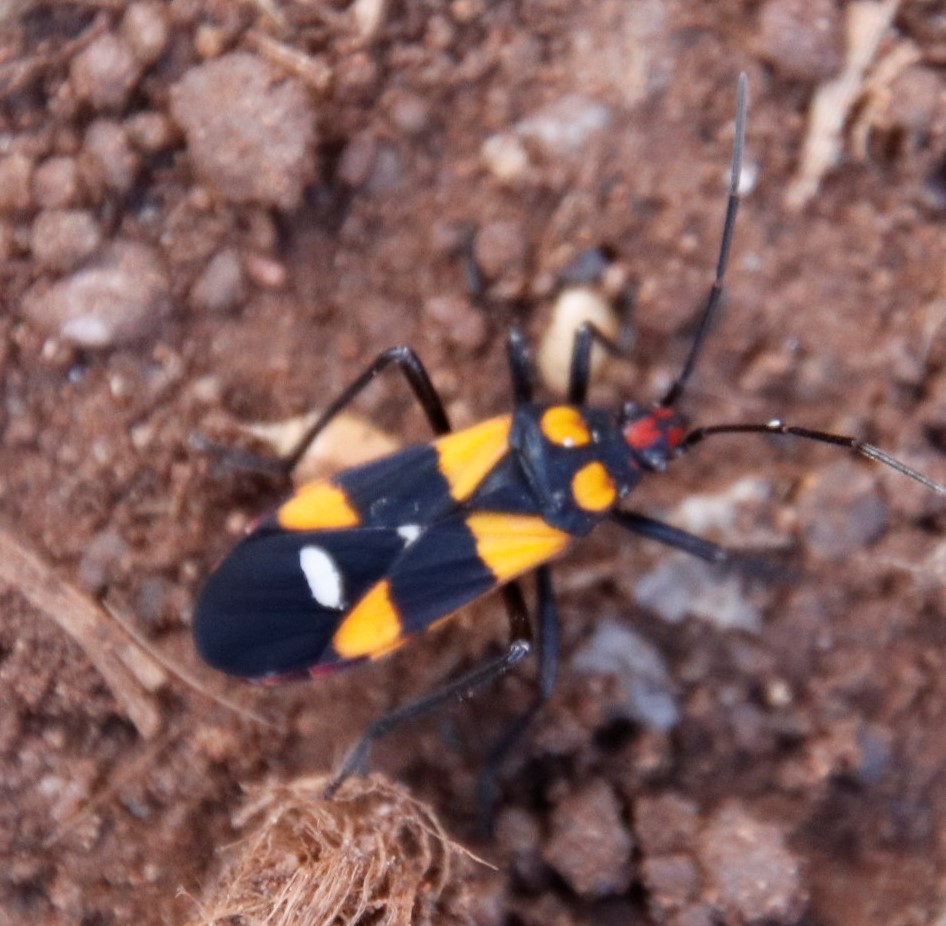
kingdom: Animalia
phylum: Arthropoda
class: Insecta
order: Hemiptera
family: Lygaeidae
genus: Oncopeltus
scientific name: Oncopeltus famelicus
